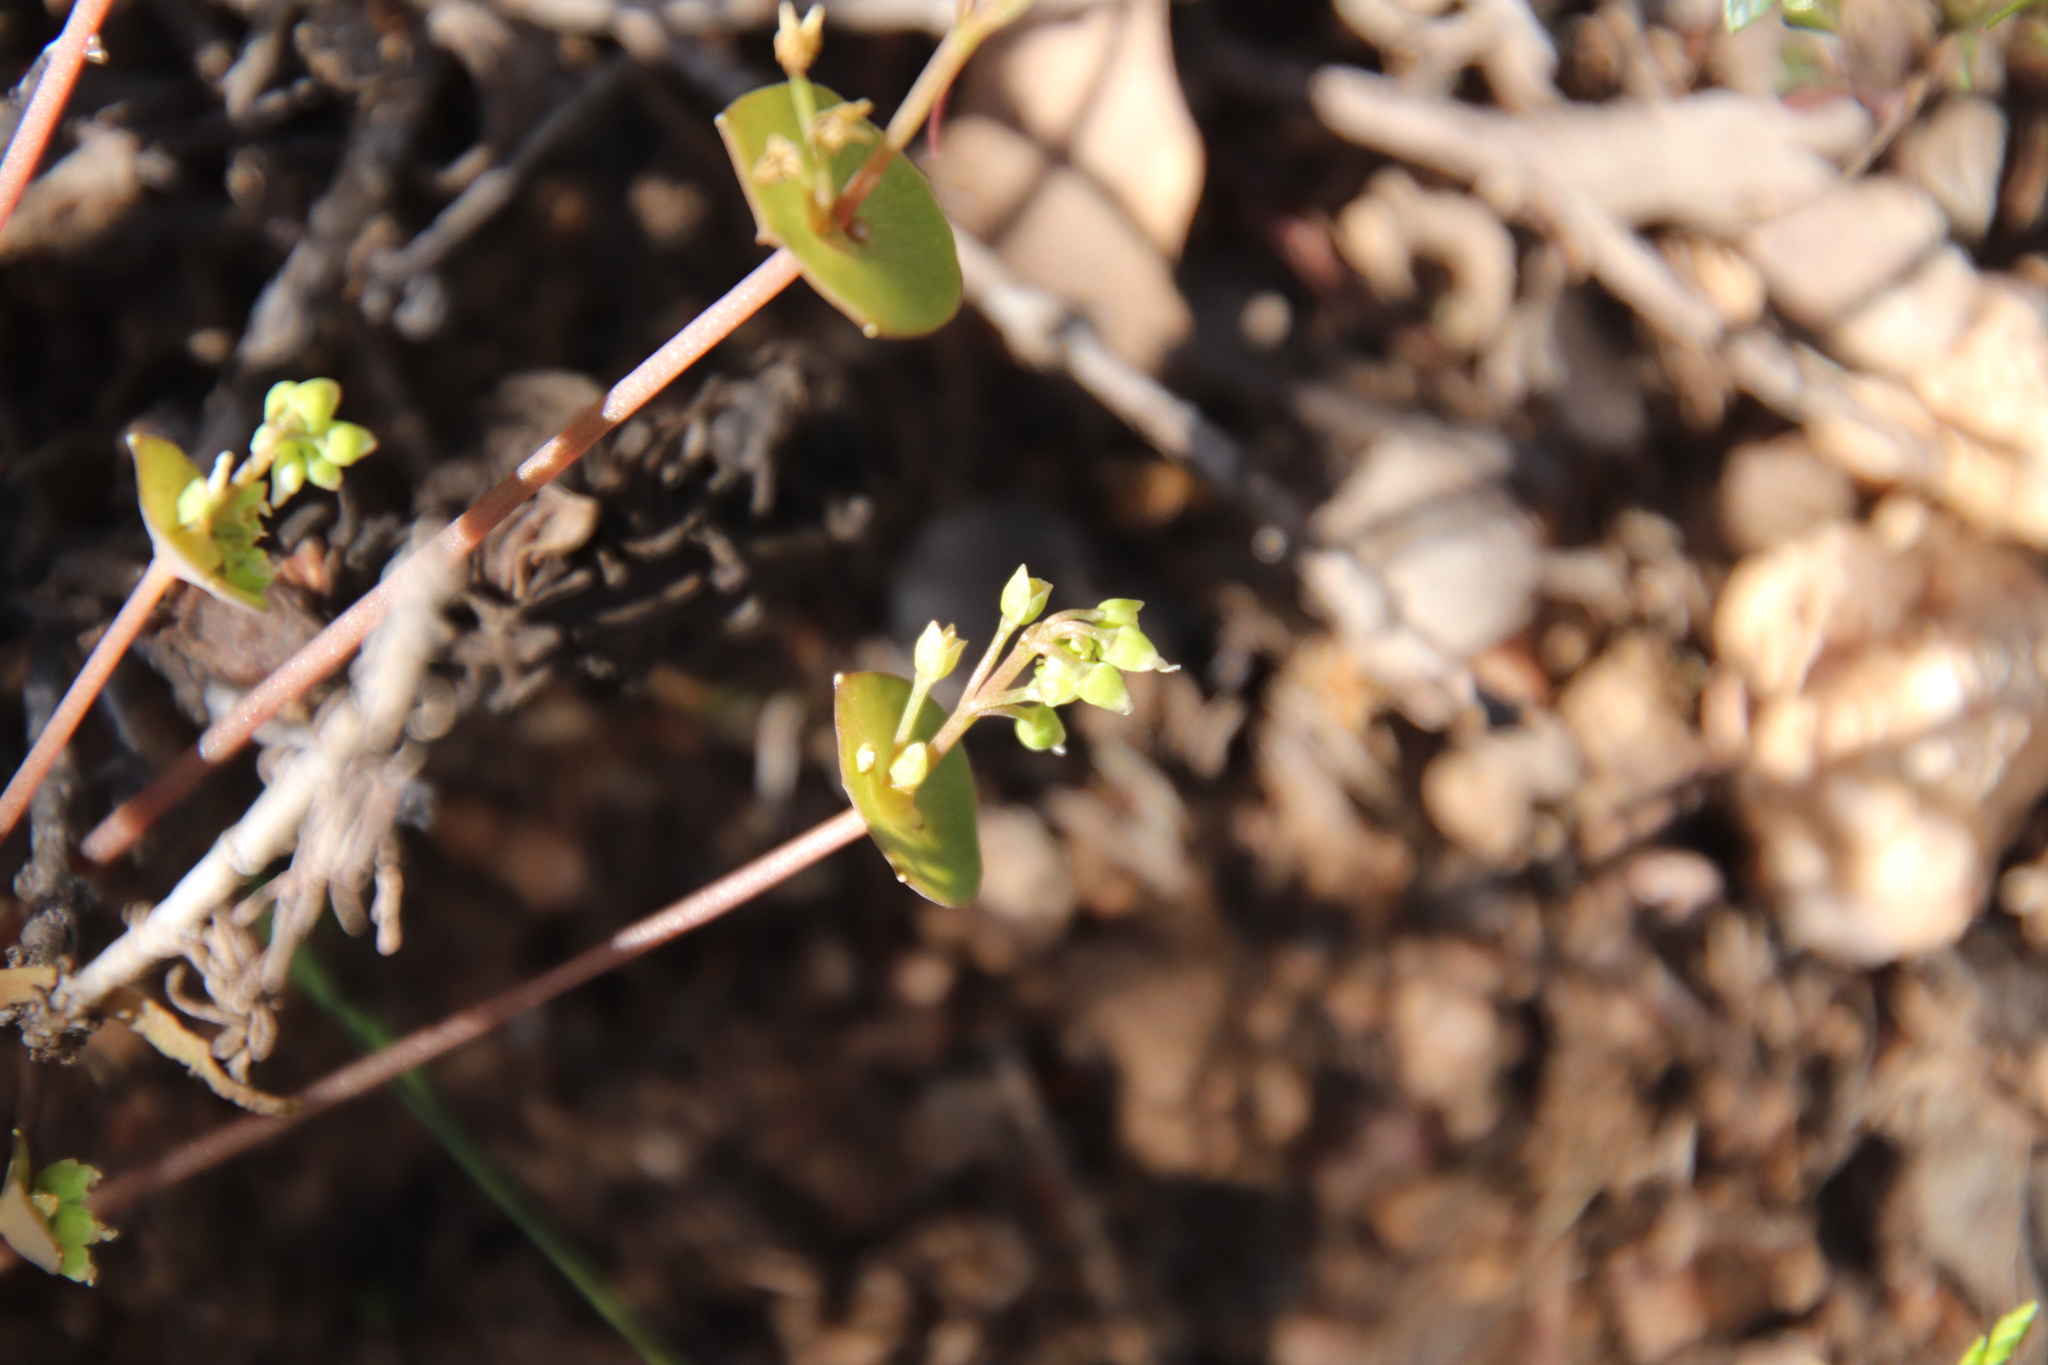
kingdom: Plantae
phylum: Tracheophyta
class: Magnoliopsida
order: Caryophyllales
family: Montiaceae
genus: Claytonia
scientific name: Claytonia parviflora
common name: Indian-lettuce
